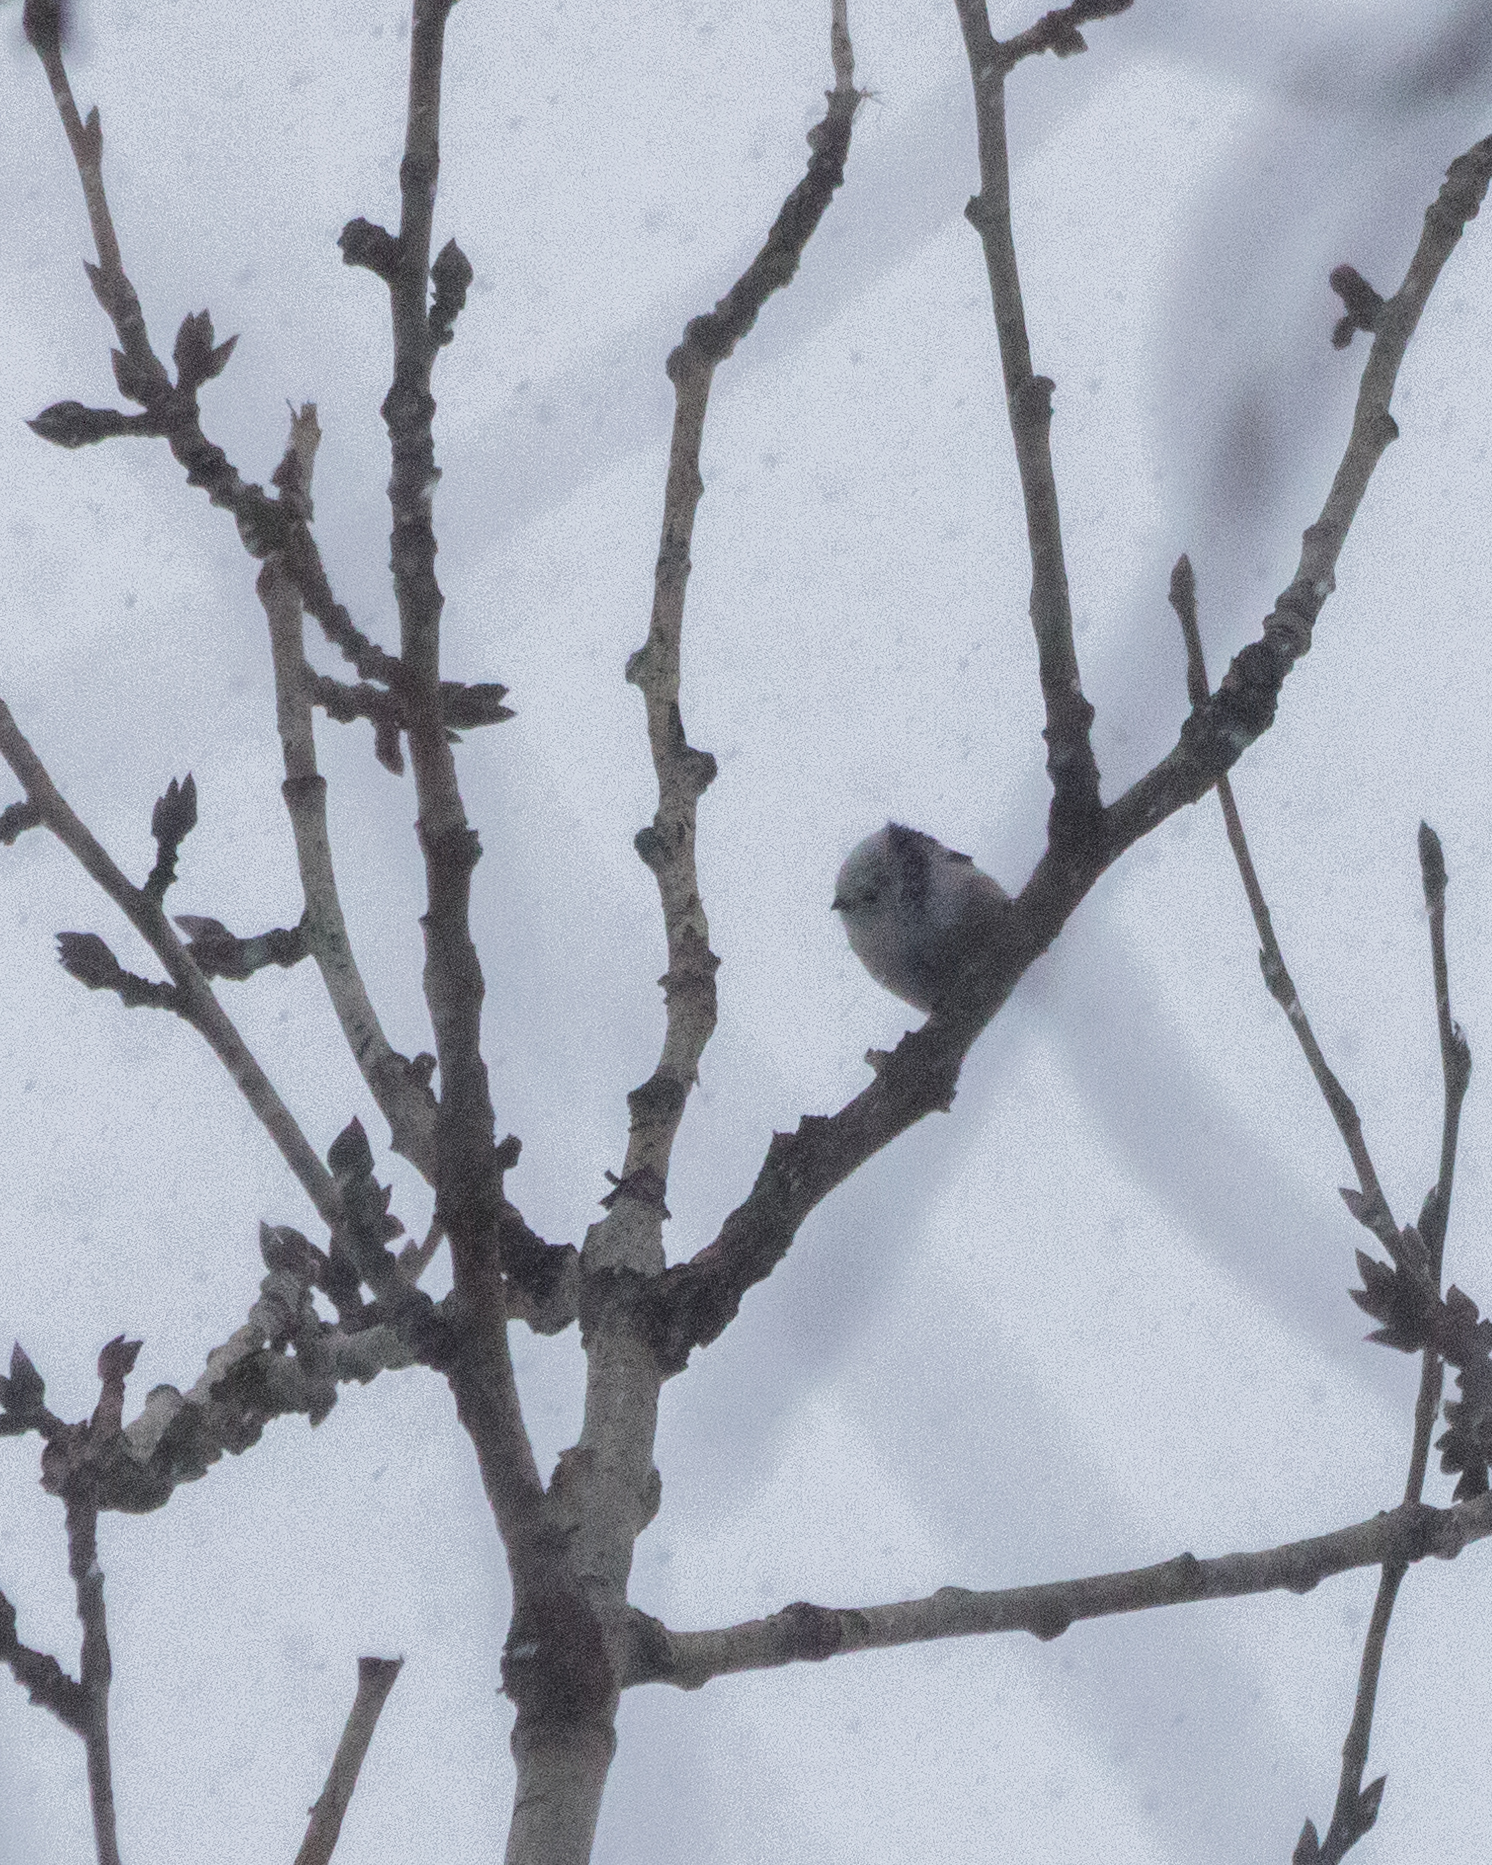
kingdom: Animalia
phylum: Chordata
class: Aves
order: Passeriformes
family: Aegithalidae
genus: Aegithalos
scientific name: Aegithalos caudatus
